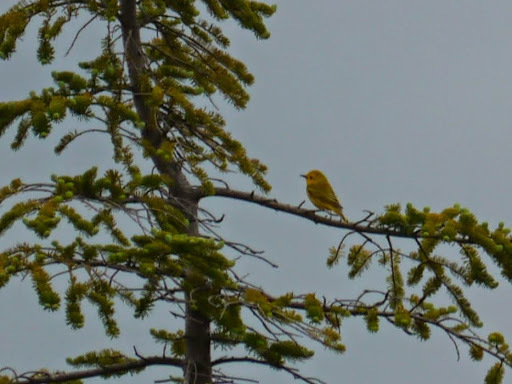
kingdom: Animalia
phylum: Chordata
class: Aves
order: Passeriformes
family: Parulidae
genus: Setophaga
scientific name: Setophaga petechia
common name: Yellow warbler
